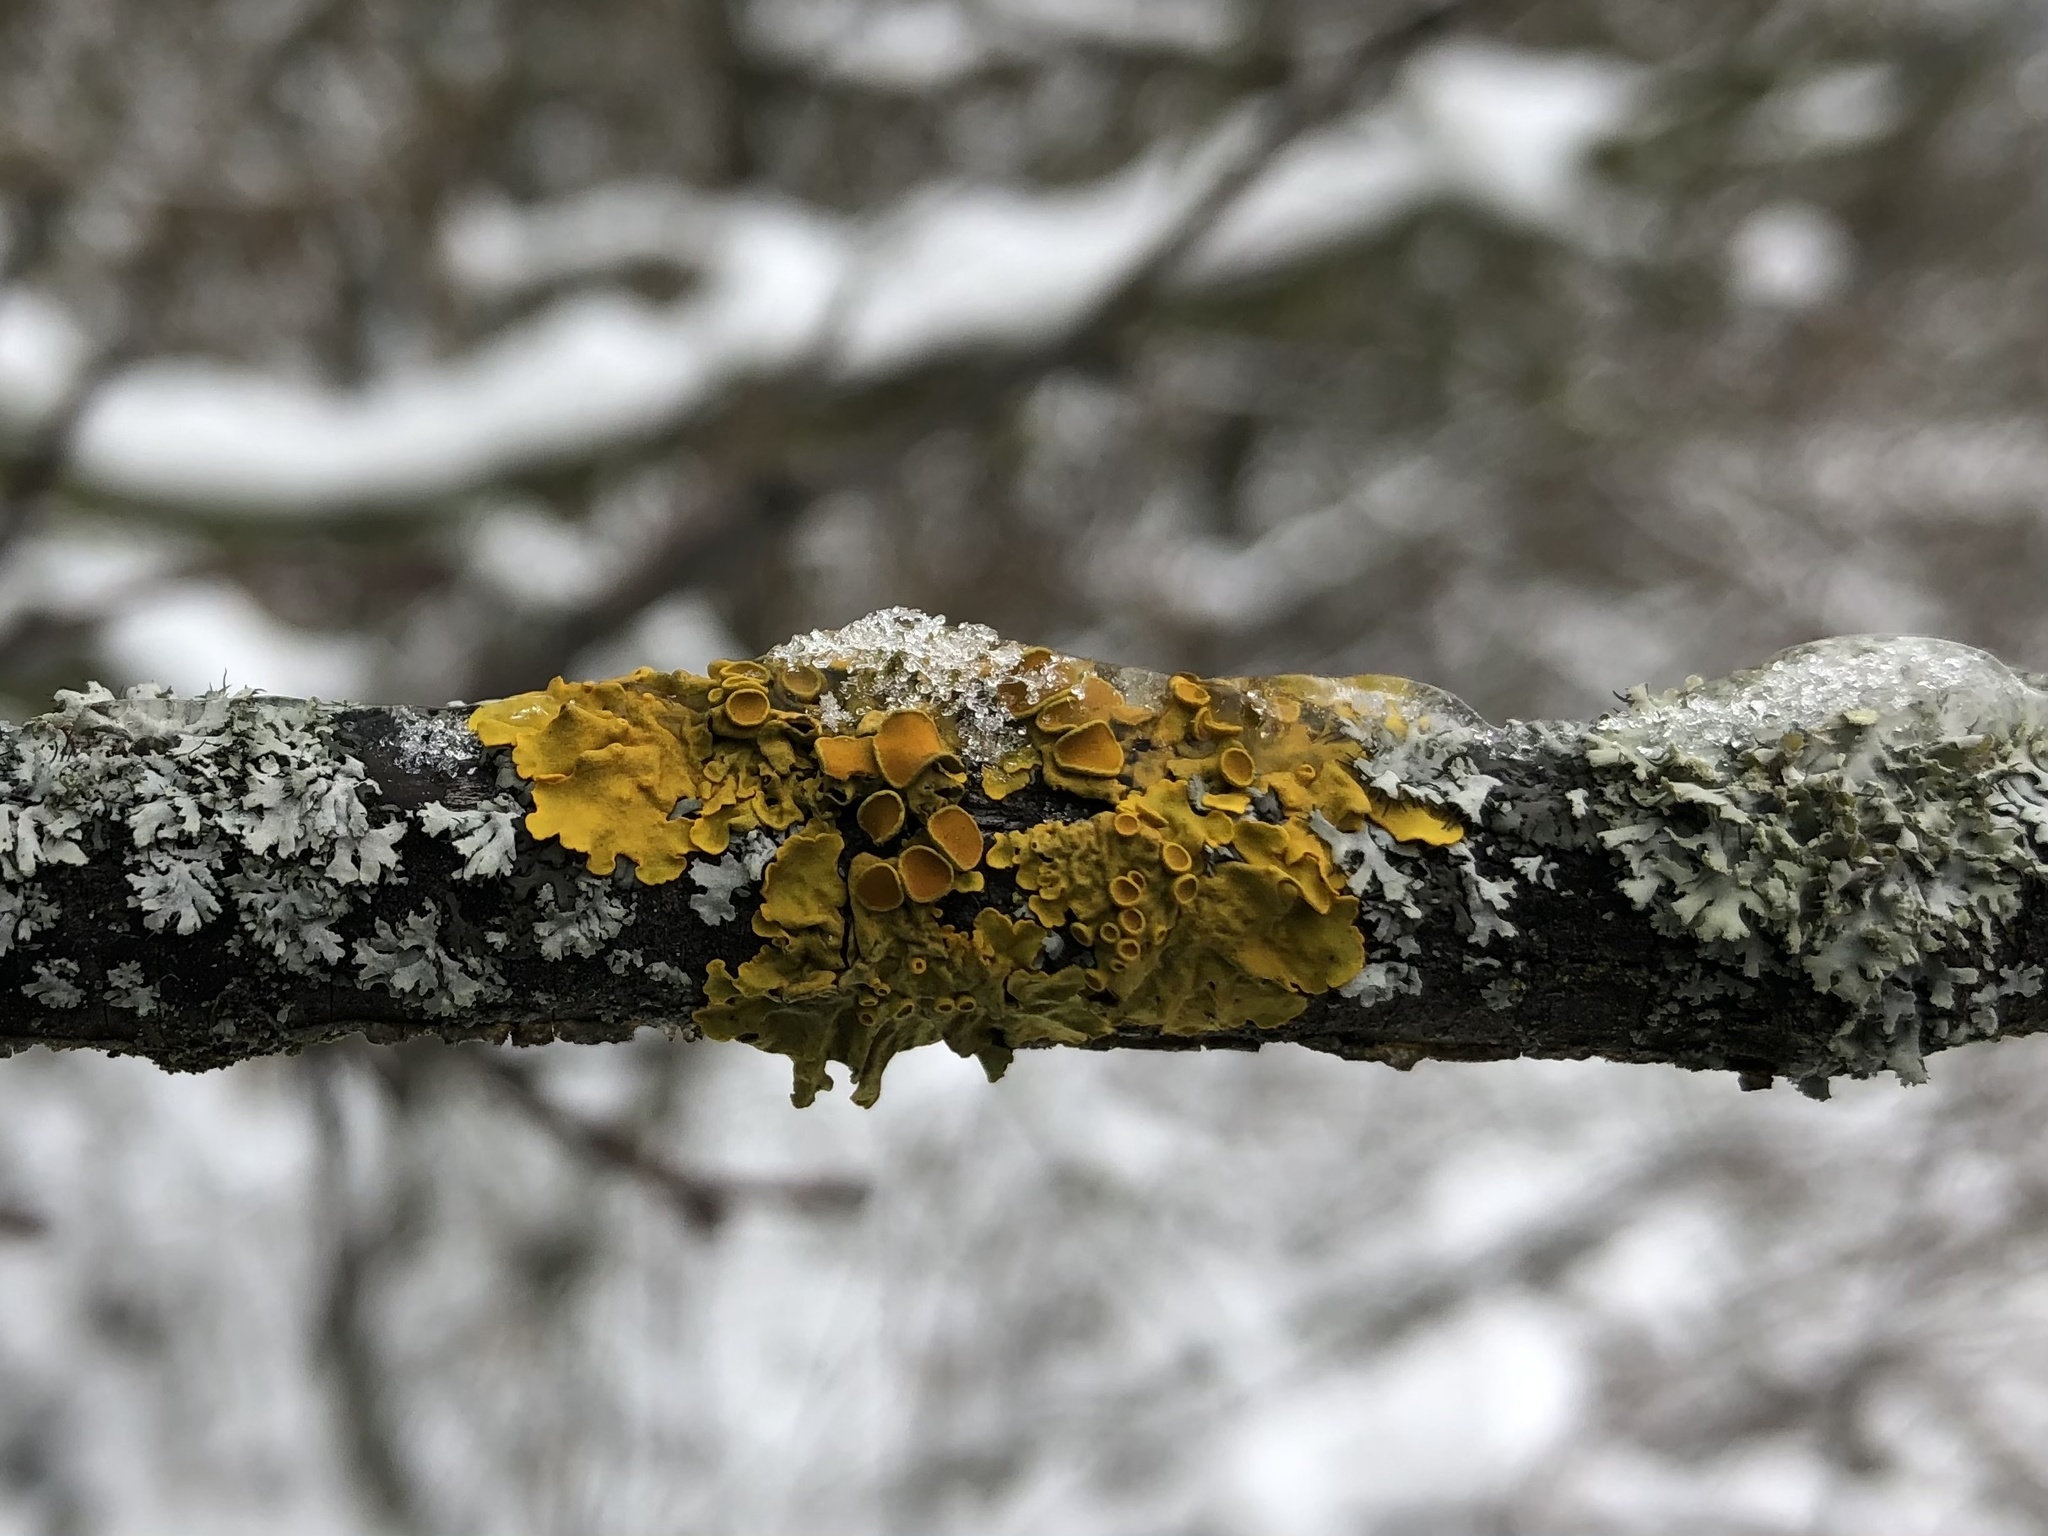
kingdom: Fungi
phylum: Ascomycota
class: Lecanoromycetes
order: Teloschistales
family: Teloschistaceae
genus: Xanthoria
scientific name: Xanthoria parietina
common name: Common orange lichen
